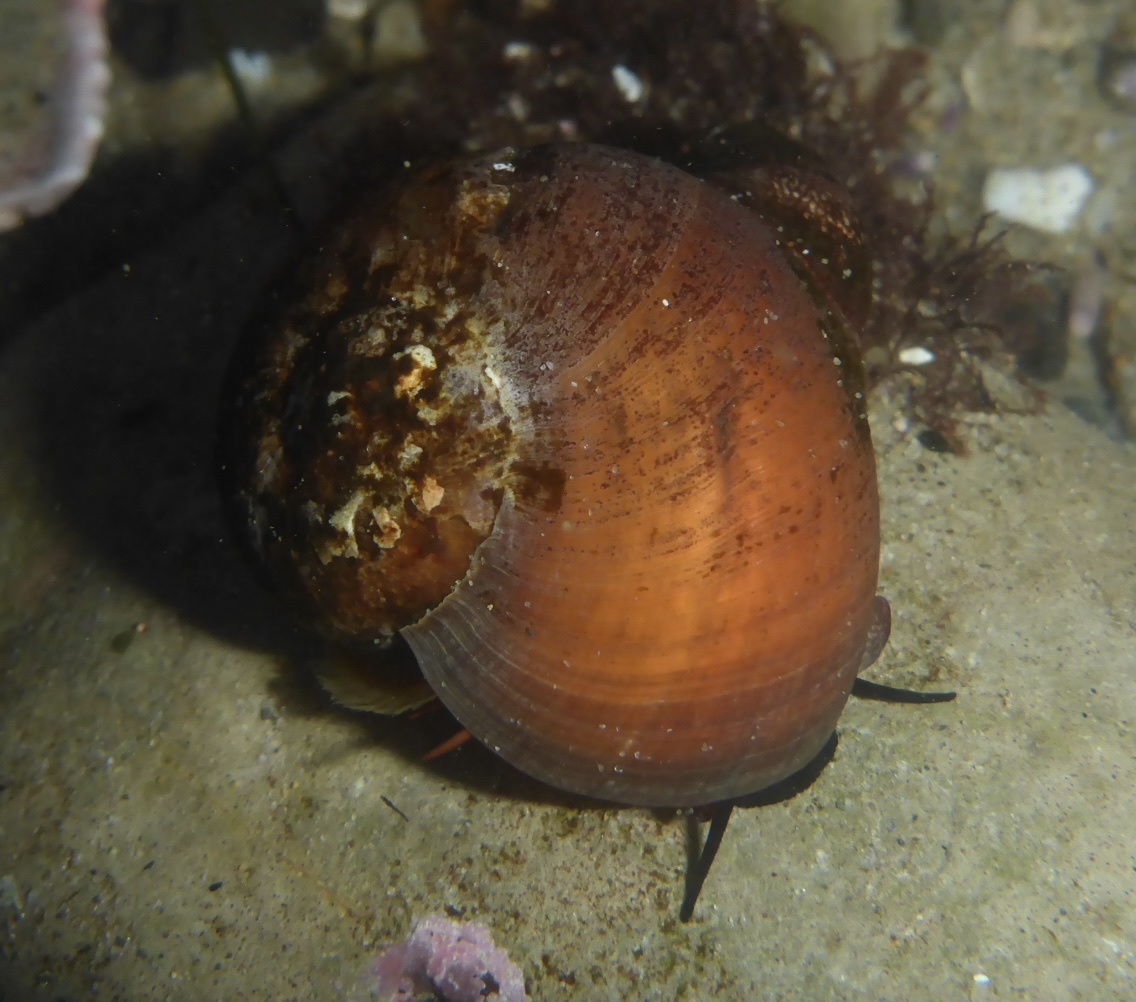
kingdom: Animalia
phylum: Mollusca
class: Gastropoda
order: Trochida
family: Tegulidae
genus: Norrisia
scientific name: Norrisia norrisii
